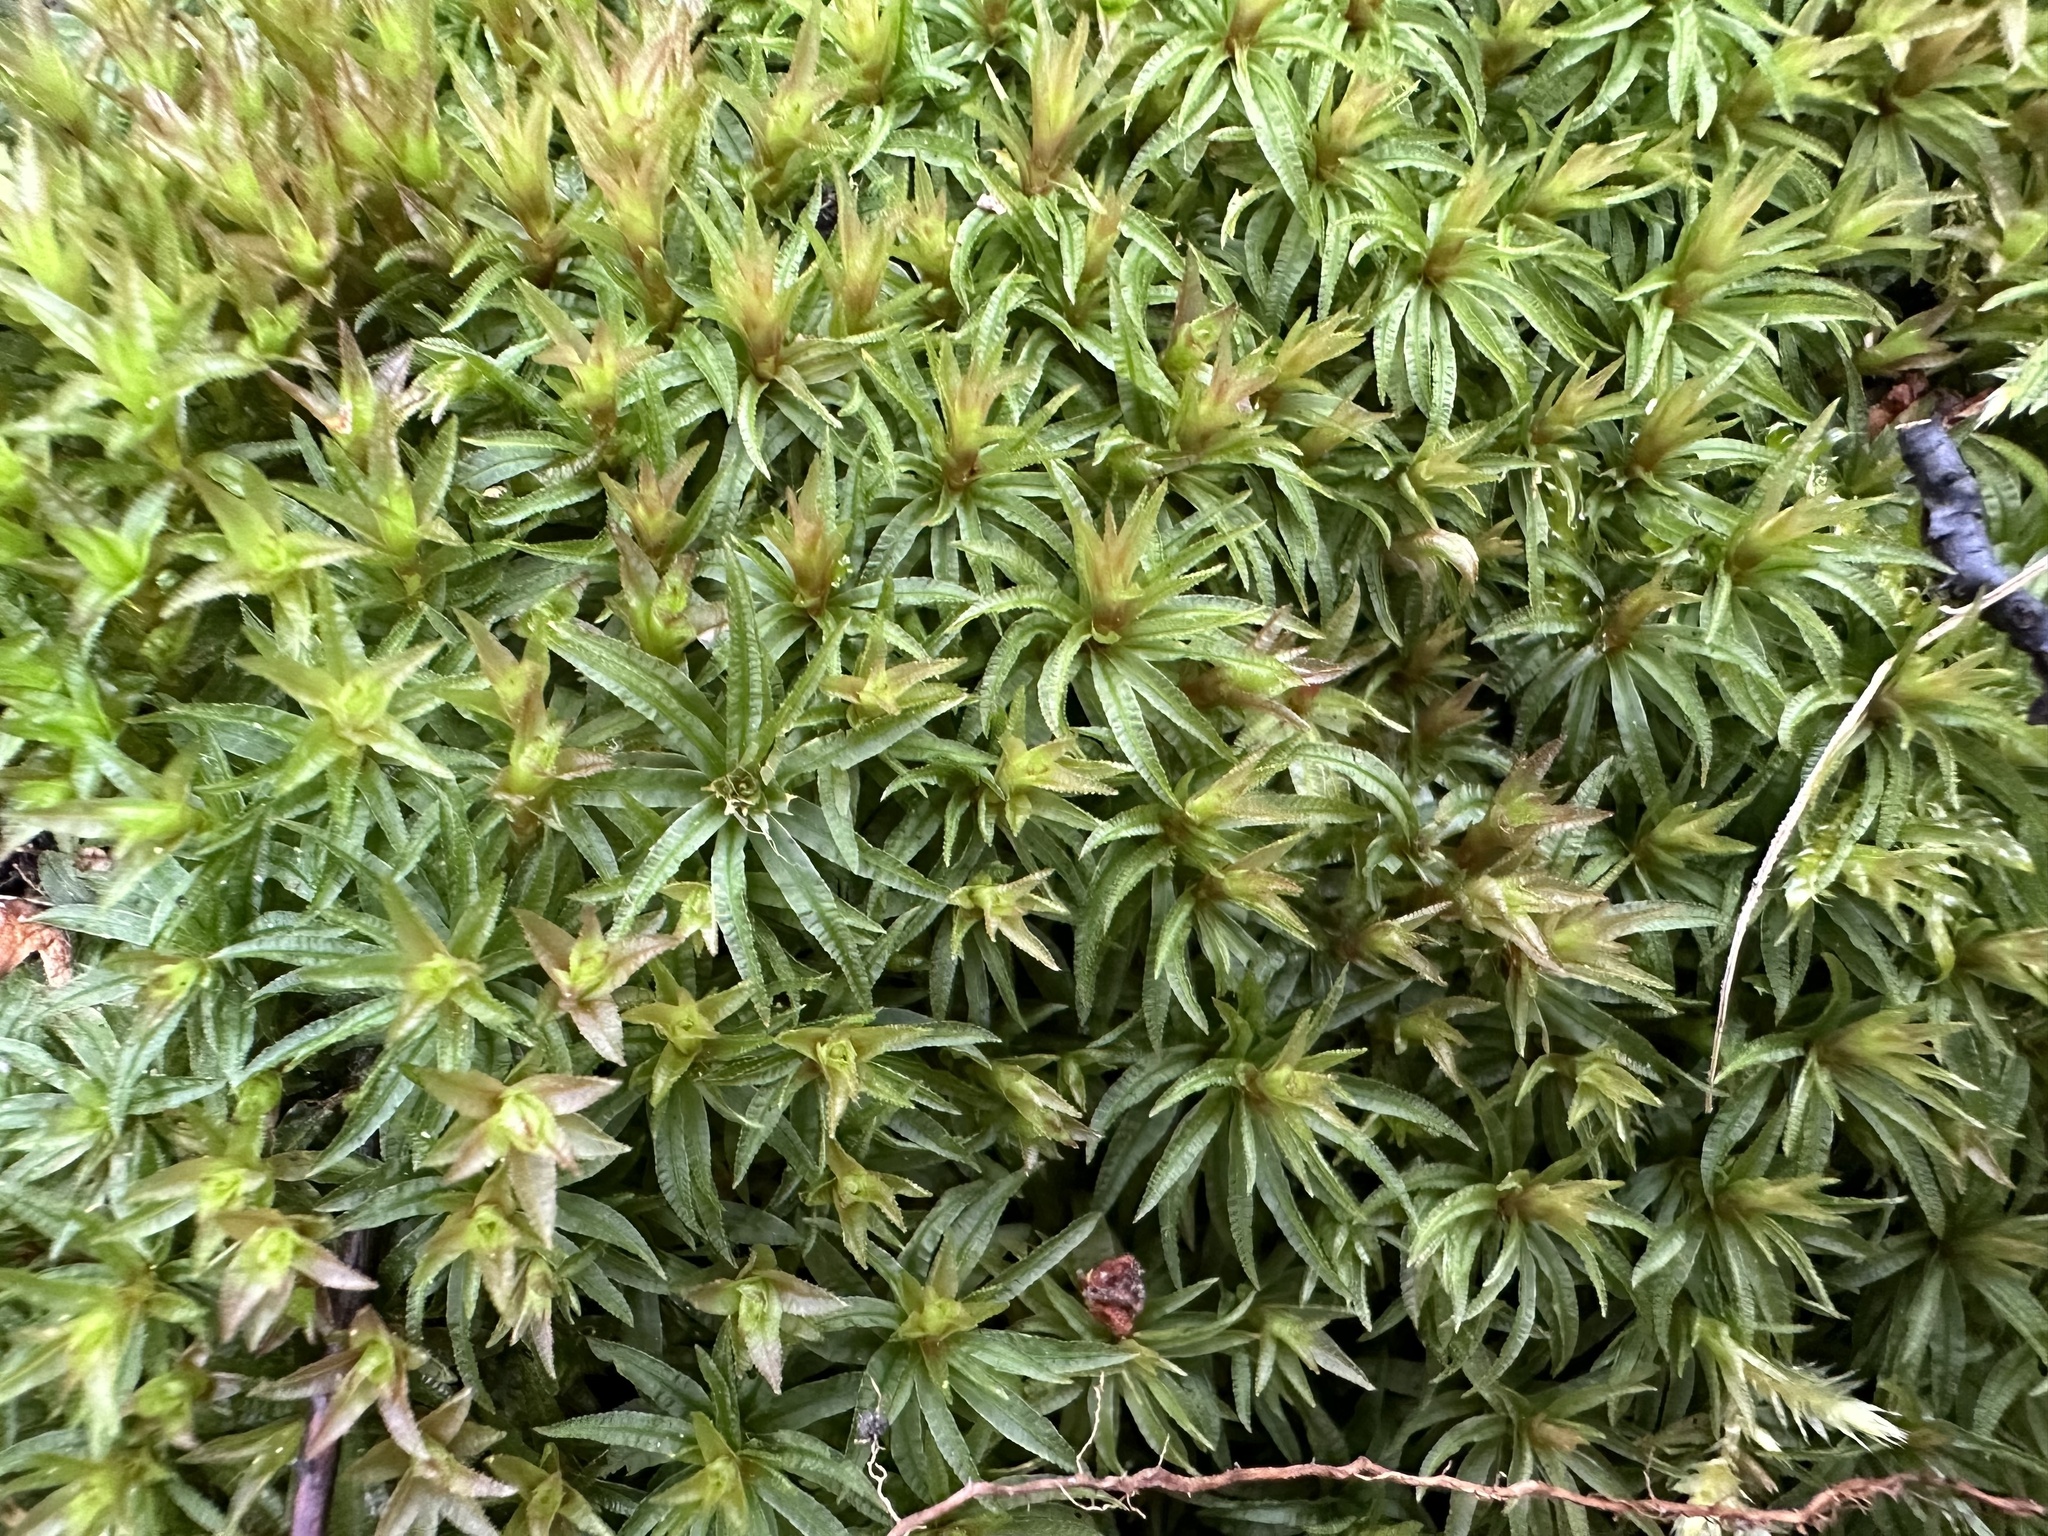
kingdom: Plantae
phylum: Bryophyta
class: Polytrichopsida
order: Polytrichales
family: Polytrichaceae
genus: Atrichum
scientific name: Atrichum undulatum
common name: Common smoothcap
